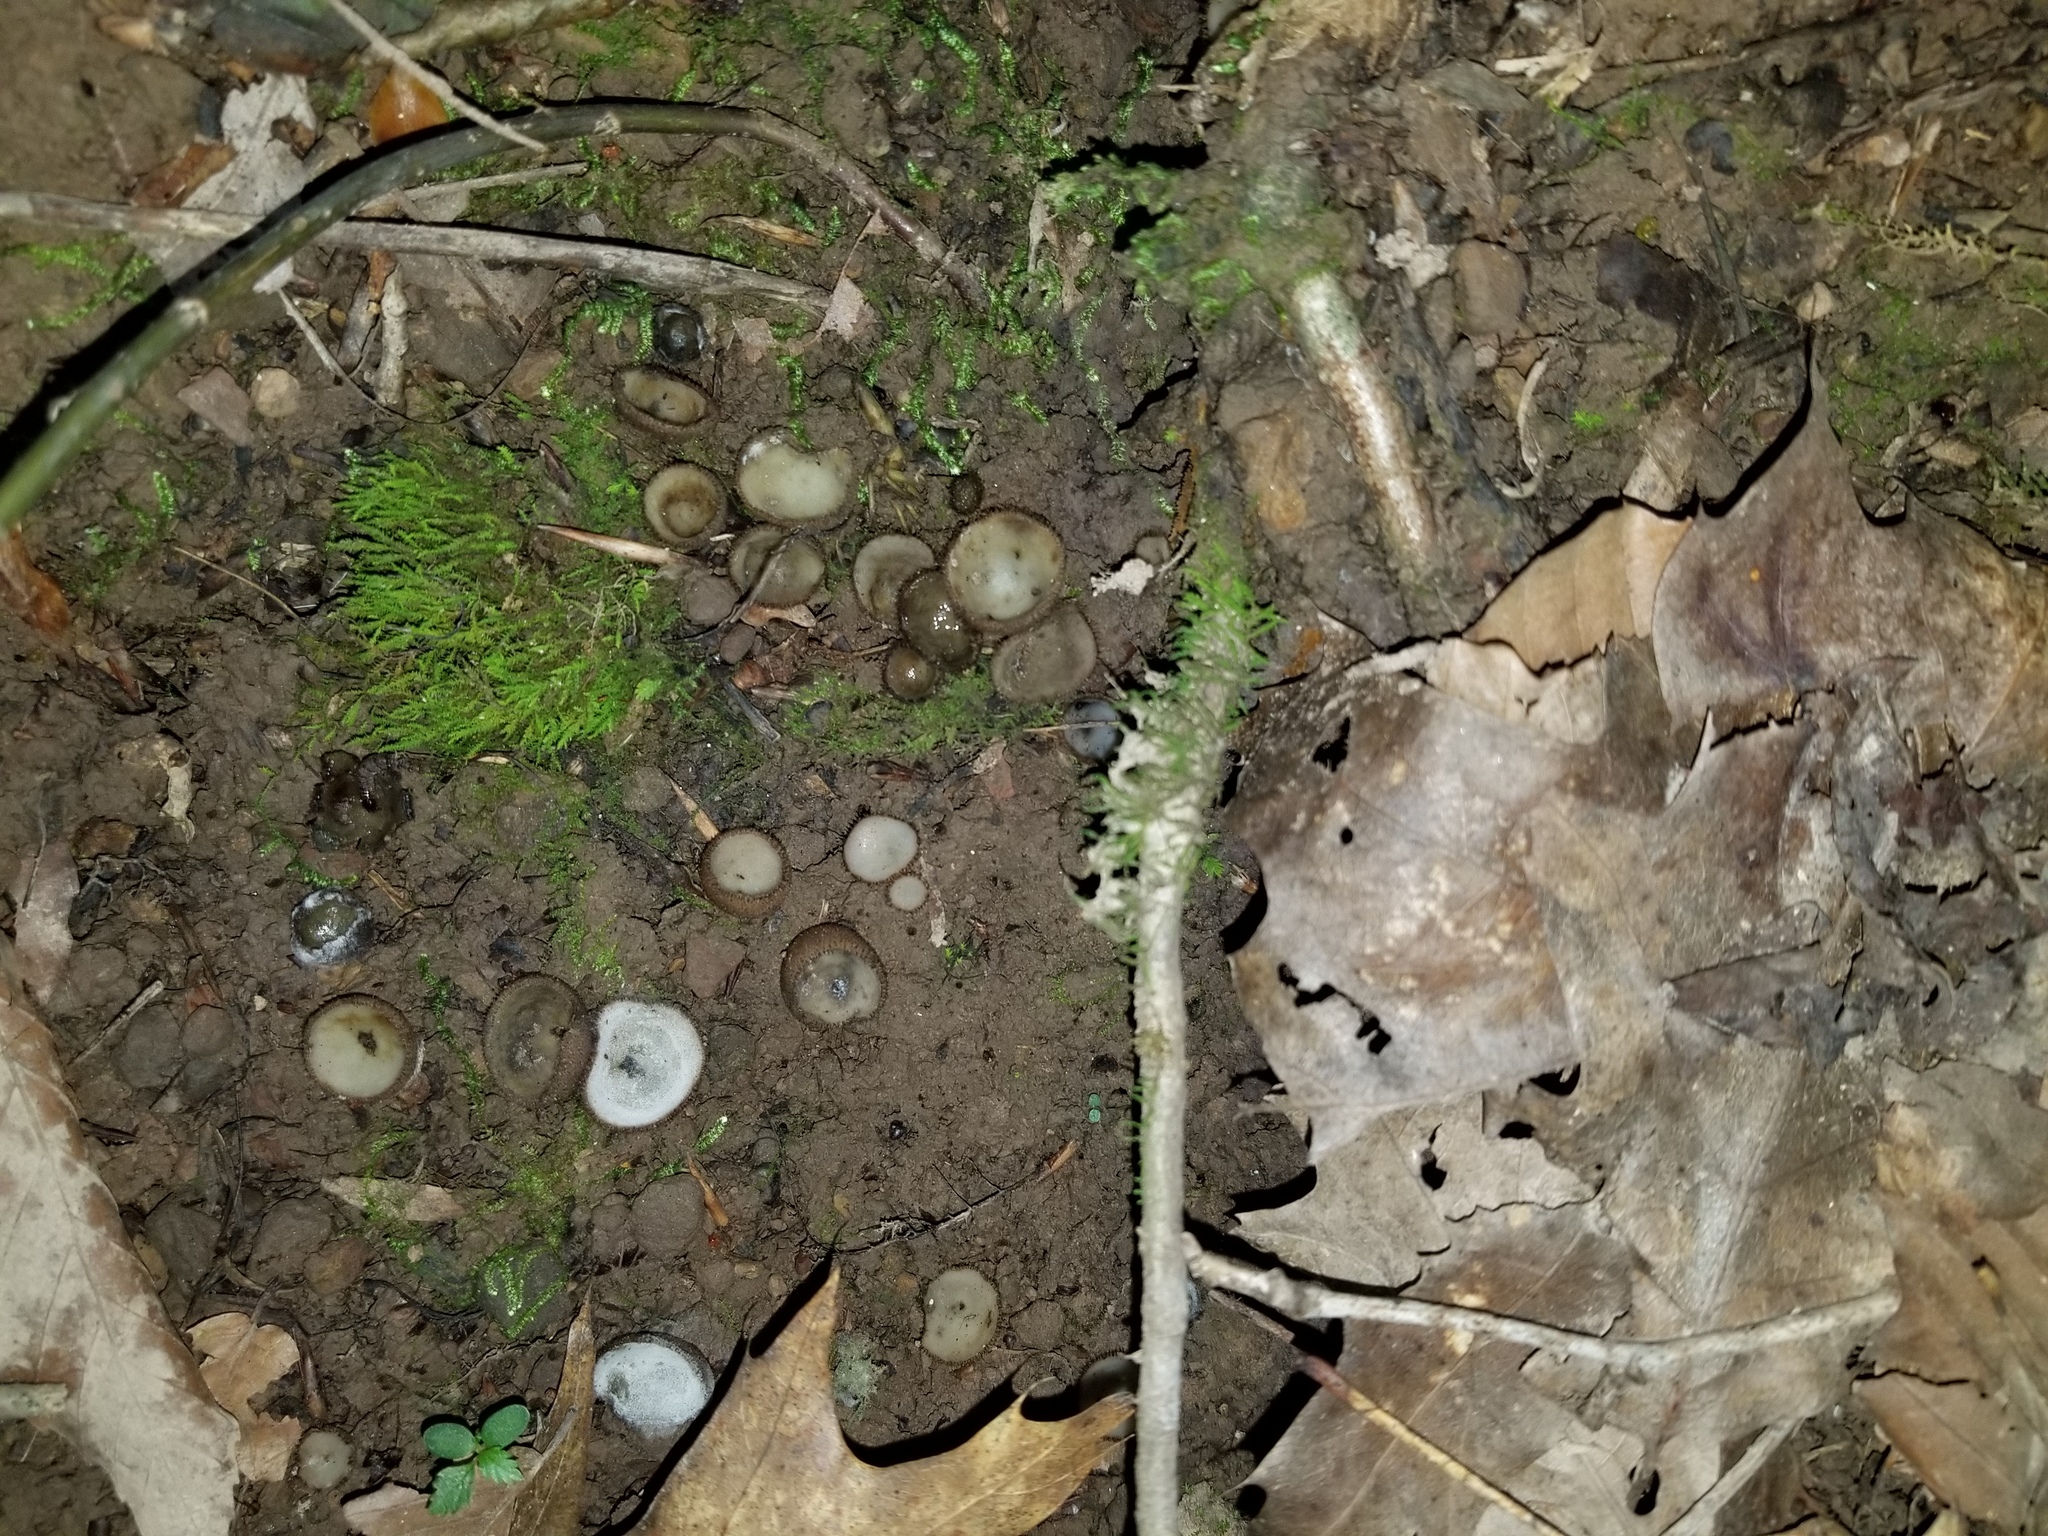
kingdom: Fungi
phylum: Ascomycota
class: Pezizomycetes
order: Pezizales
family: Pyronemataceae
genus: Humaria
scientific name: Humaria hemisphaerica
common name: Glazed cup
